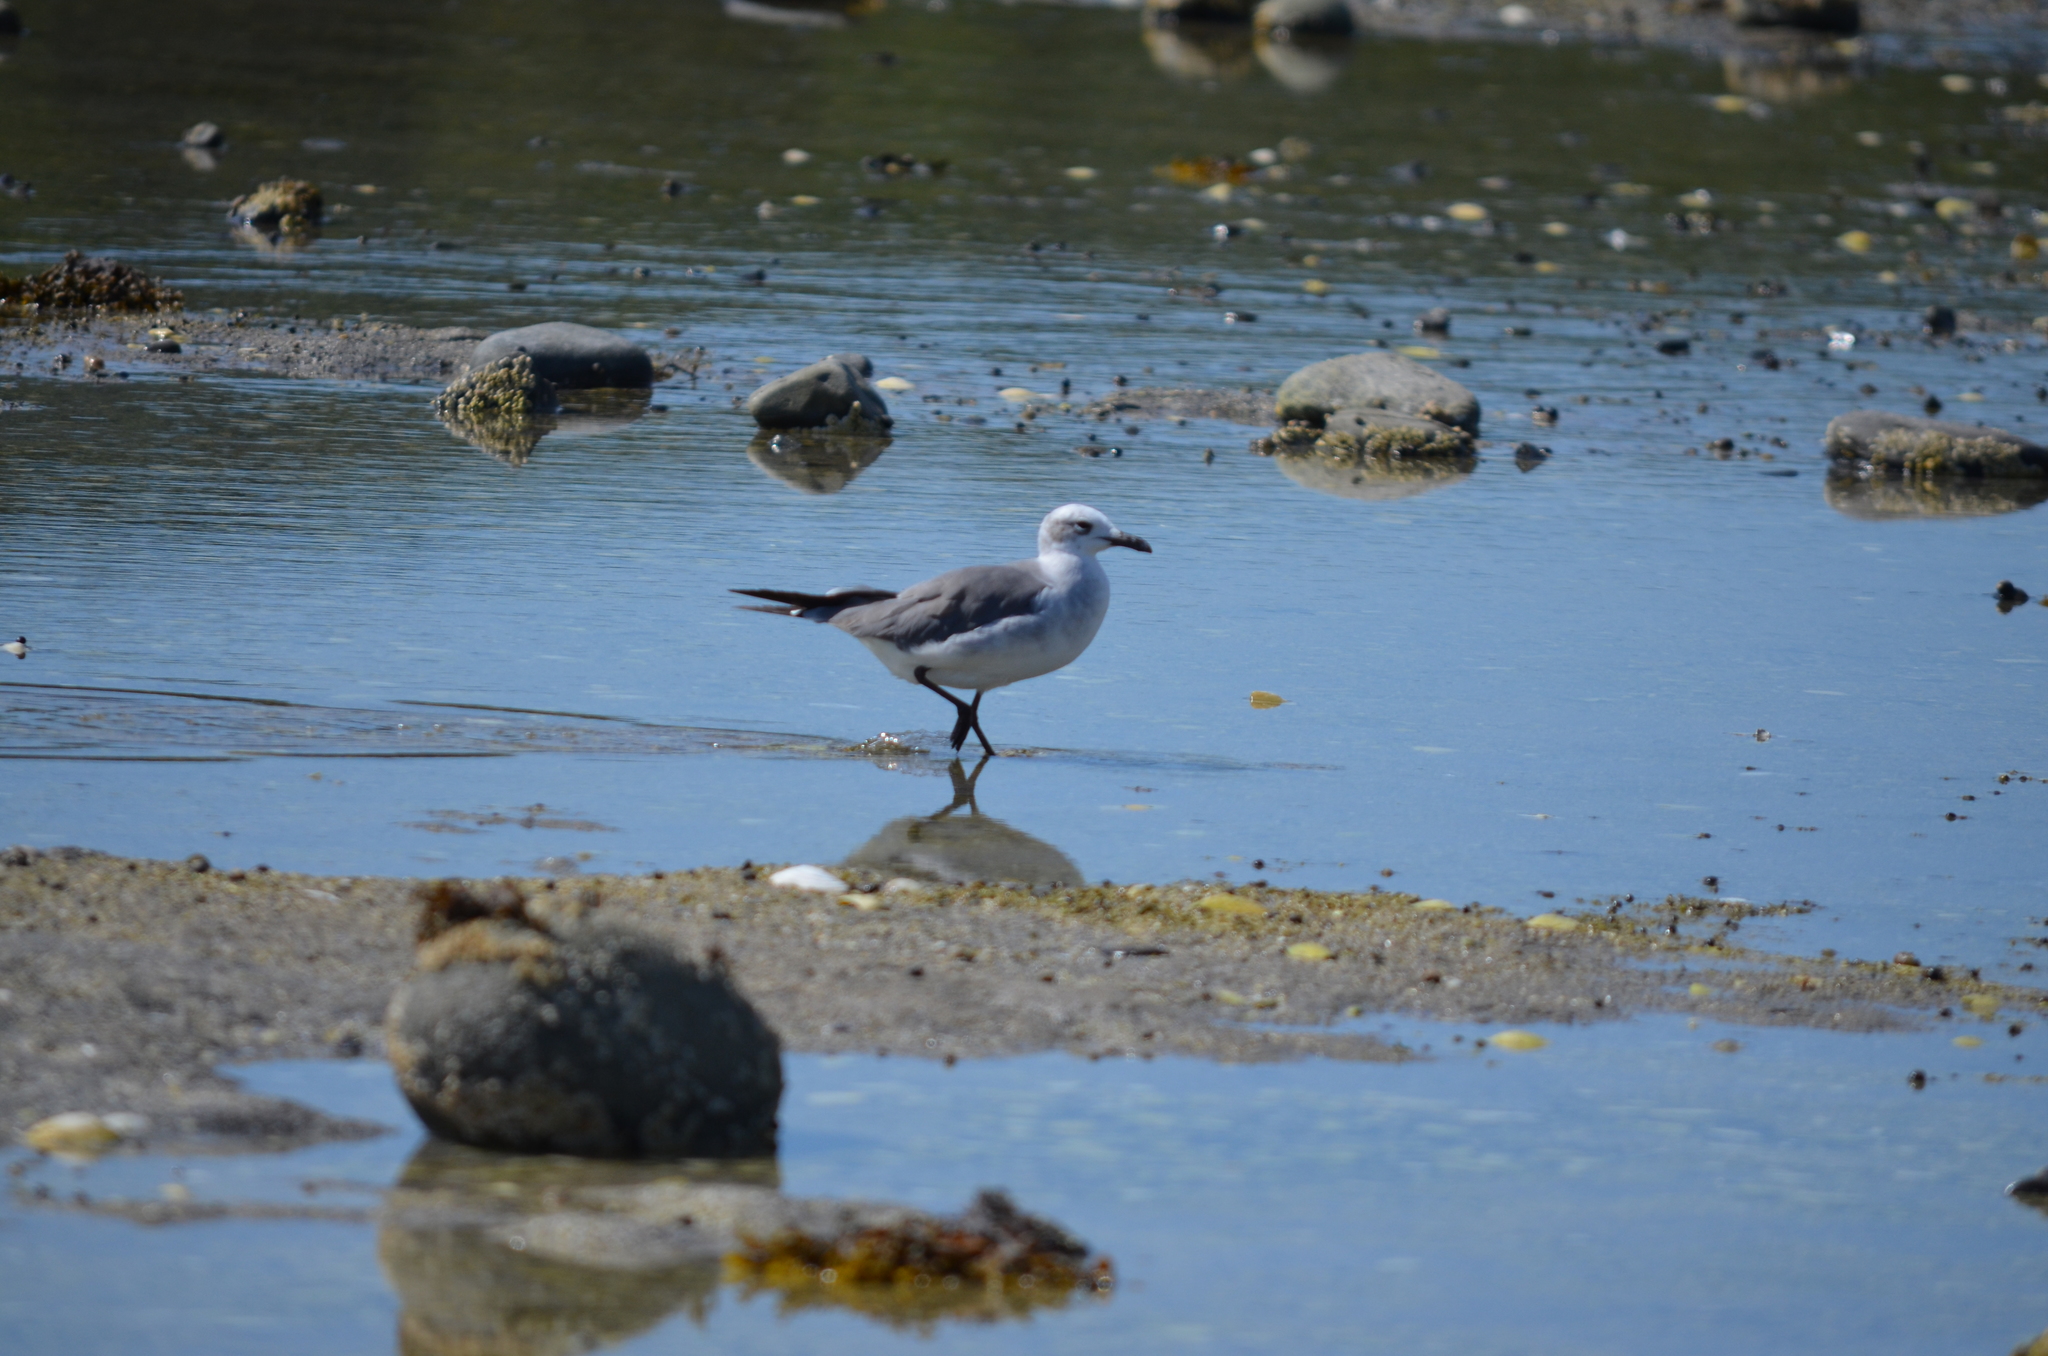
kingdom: Animalia
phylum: Chordata
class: Aves
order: Charadriiformes
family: Laridae
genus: Leucophaeus
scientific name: Leucophaeus atricilla
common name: Laughing gull
